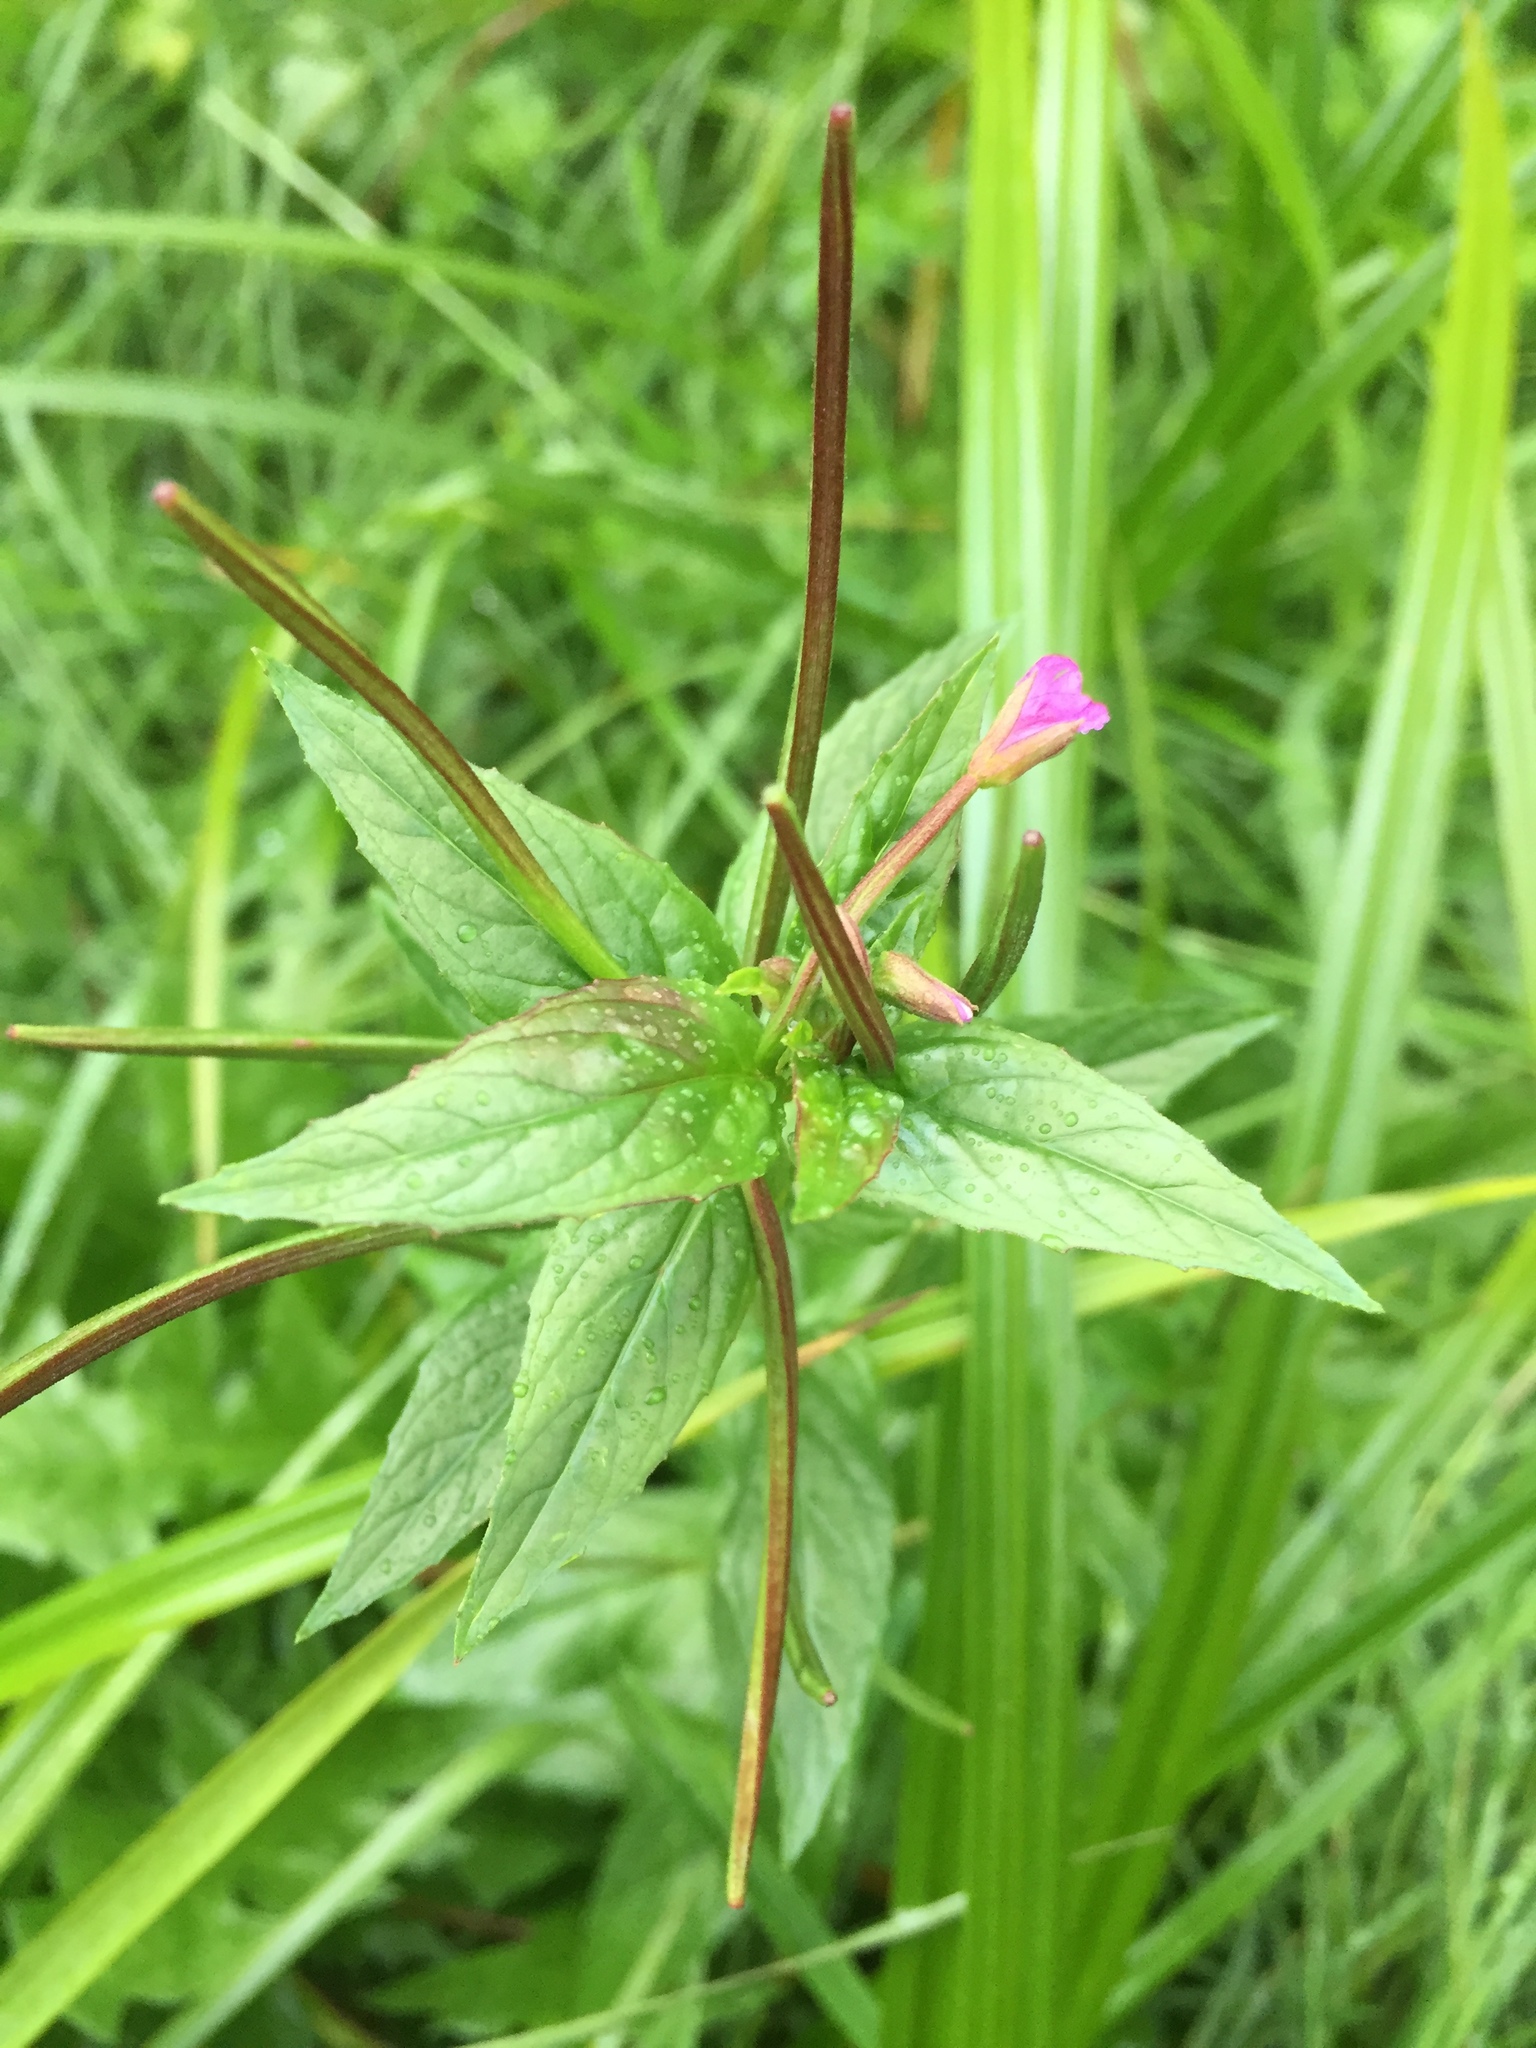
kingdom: Plantae
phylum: Tracheophyta
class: Magnoliopsida
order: Myrtales
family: Onagraceae
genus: Epilobium
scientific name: Epilobium ciliatum
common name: American willowherb
